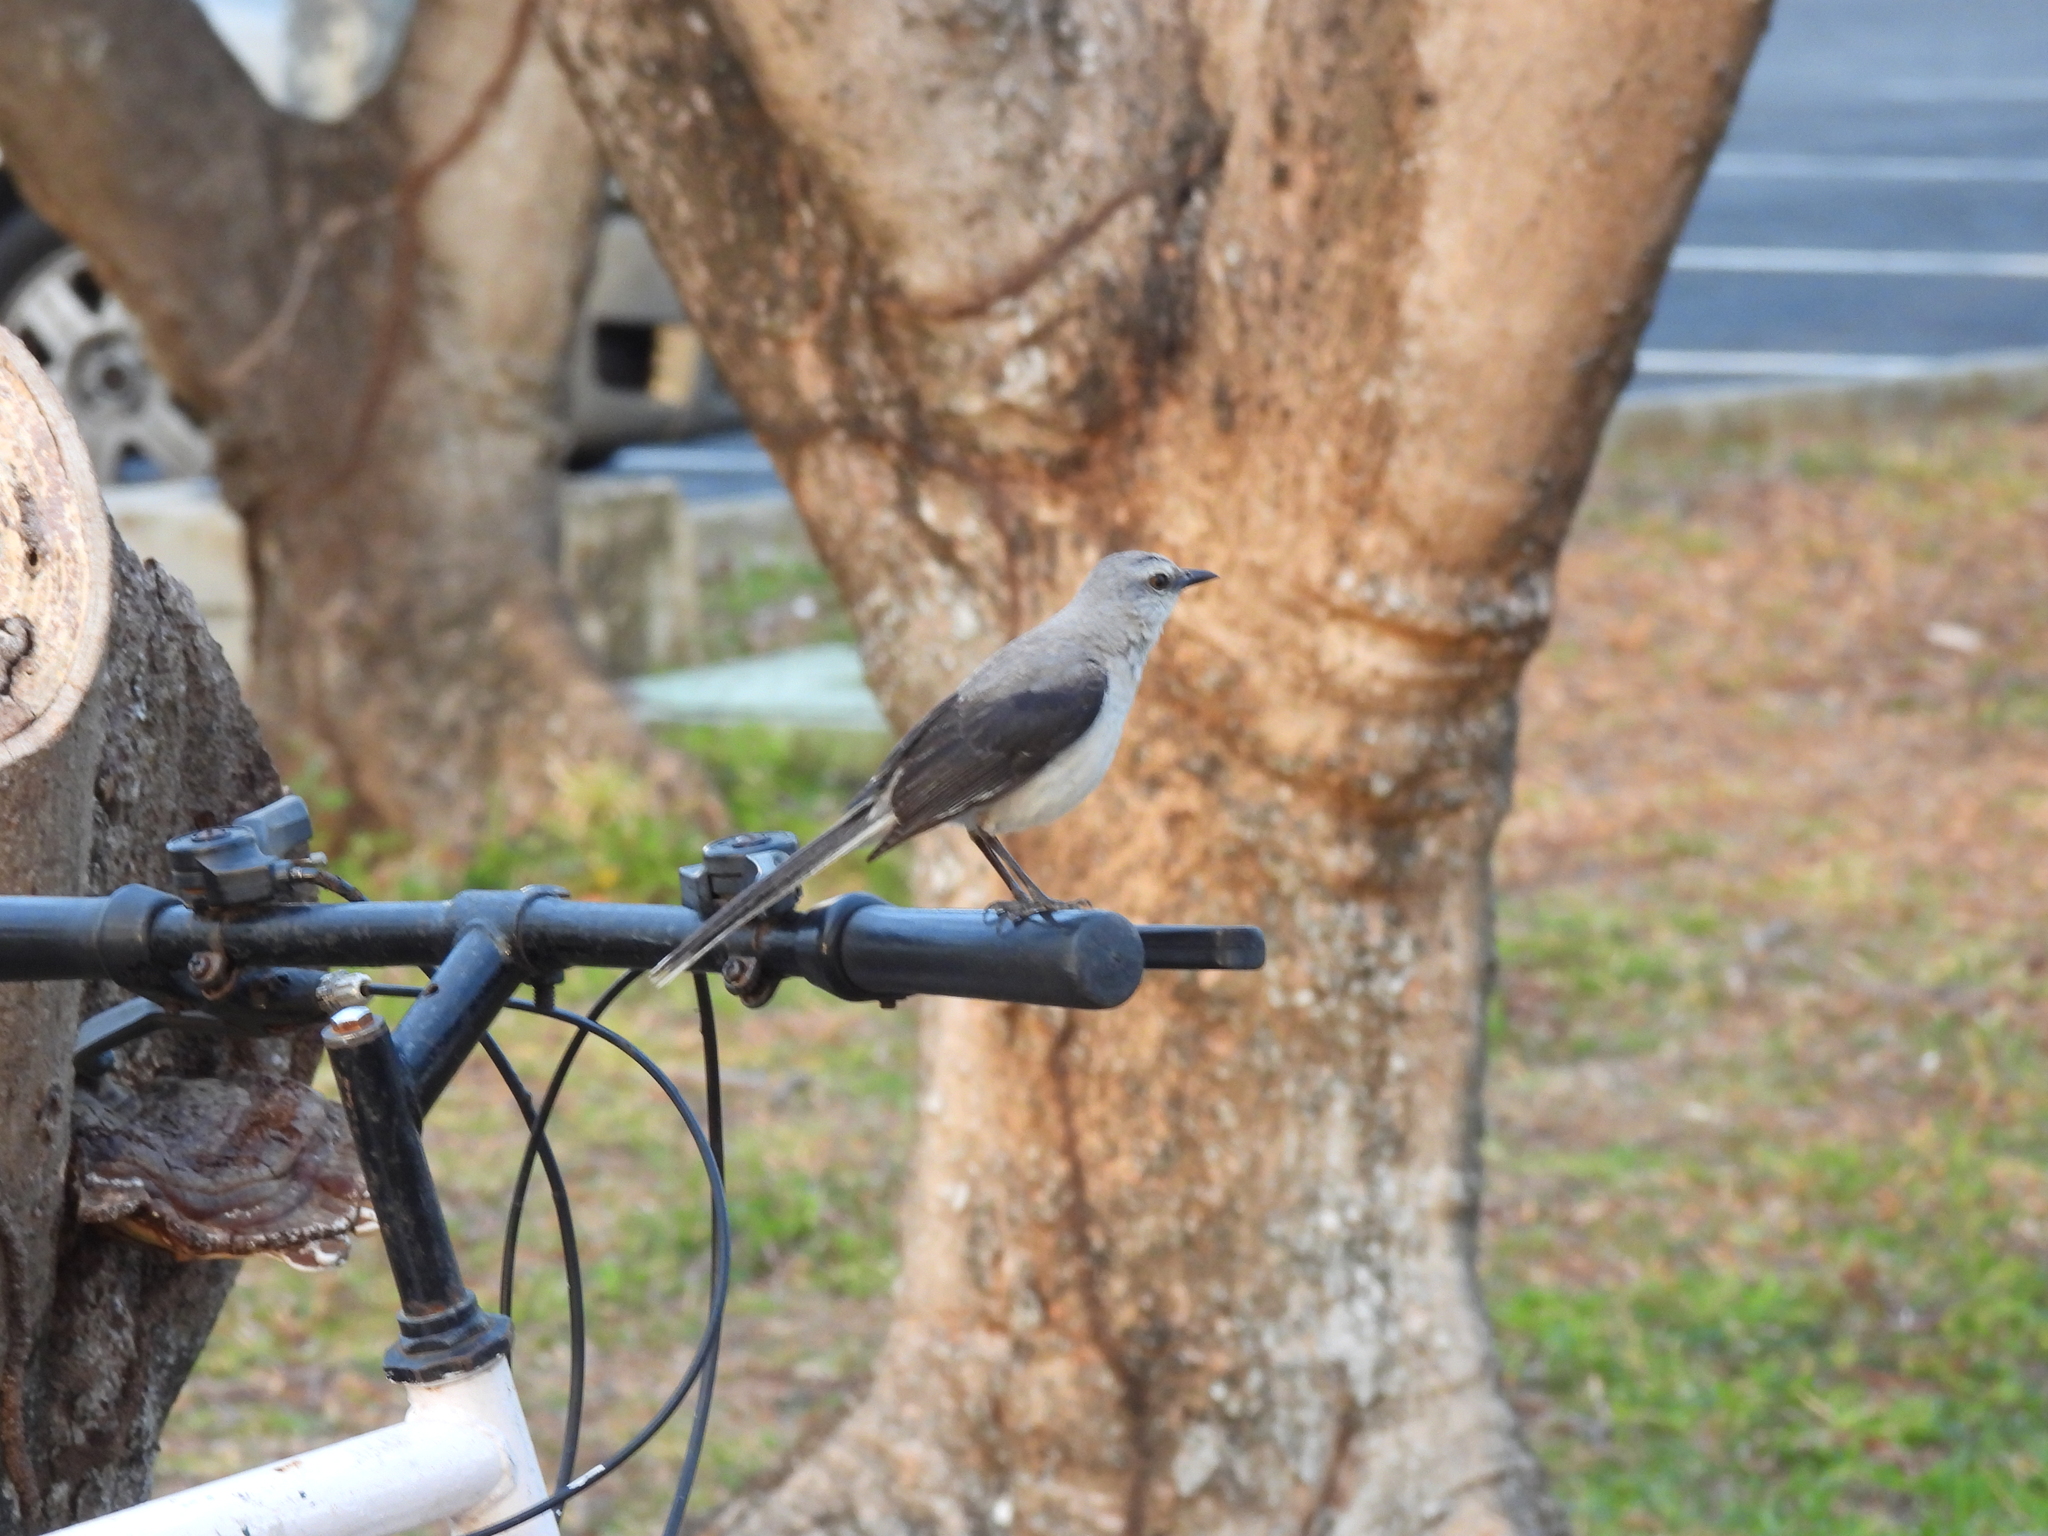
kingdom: Animalia
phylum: Chordata
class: Aves
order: Passeriformes
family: Mimidae
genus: Mimus
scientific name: Mimus gilvus
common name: Tropical mockingbird
